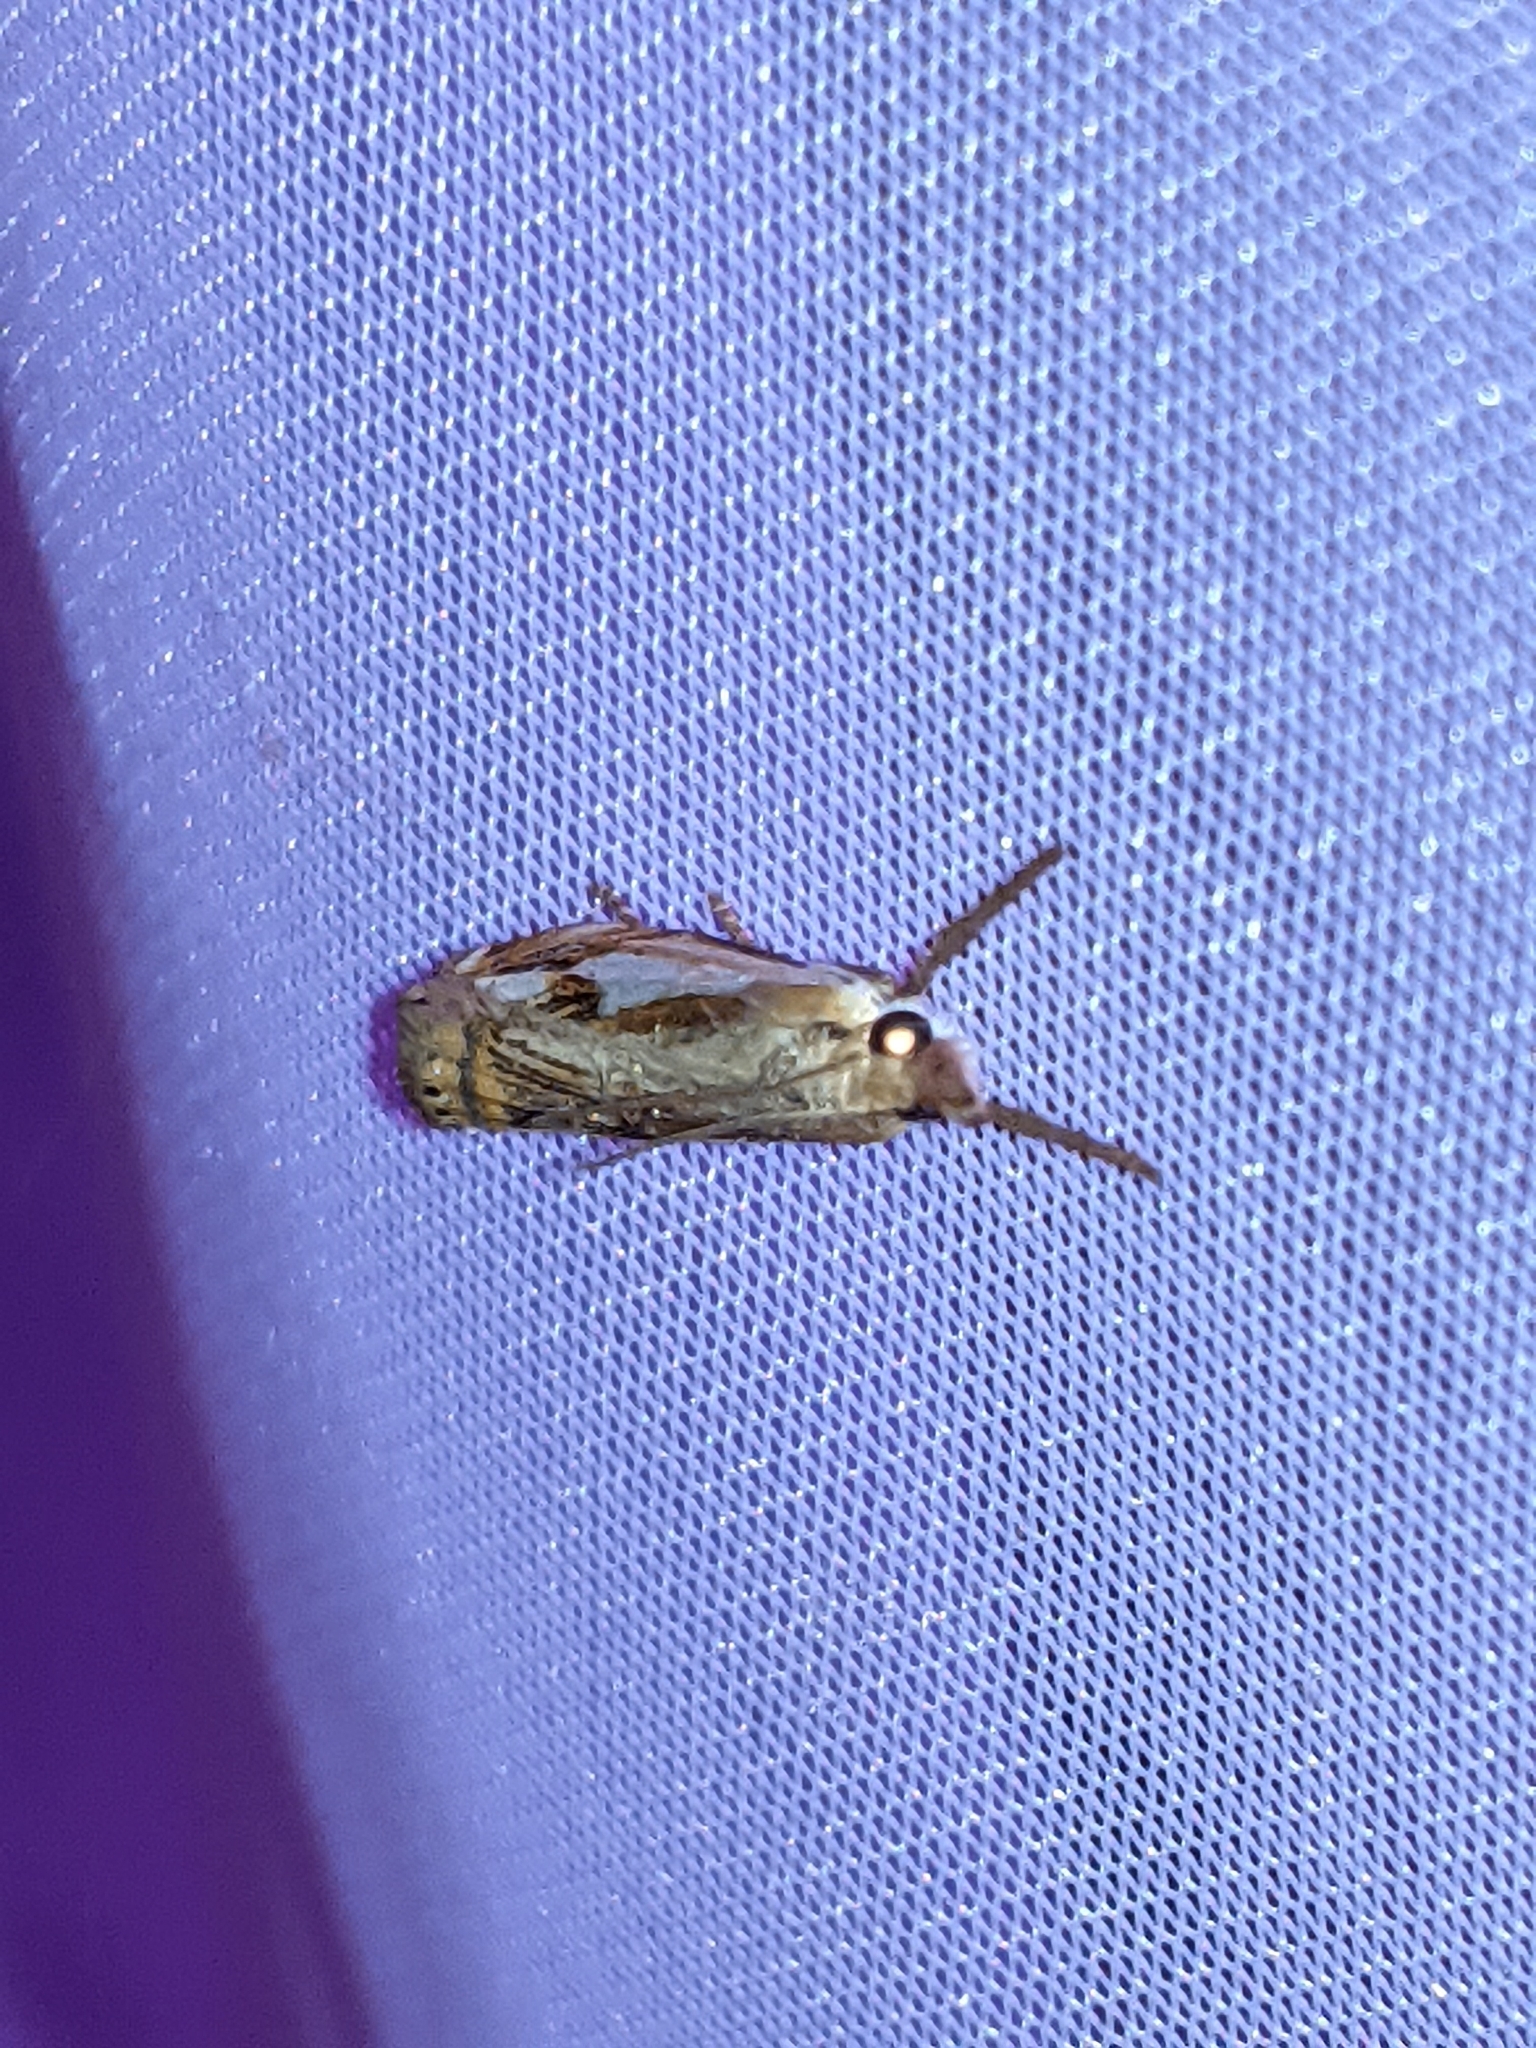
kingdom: Animalia
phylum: Arthropoda
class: Insecta
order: Lepidoptera
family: Crambidae
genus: Crambus
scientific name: Crambus agitatellus
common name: Double-banded grass-veneer
